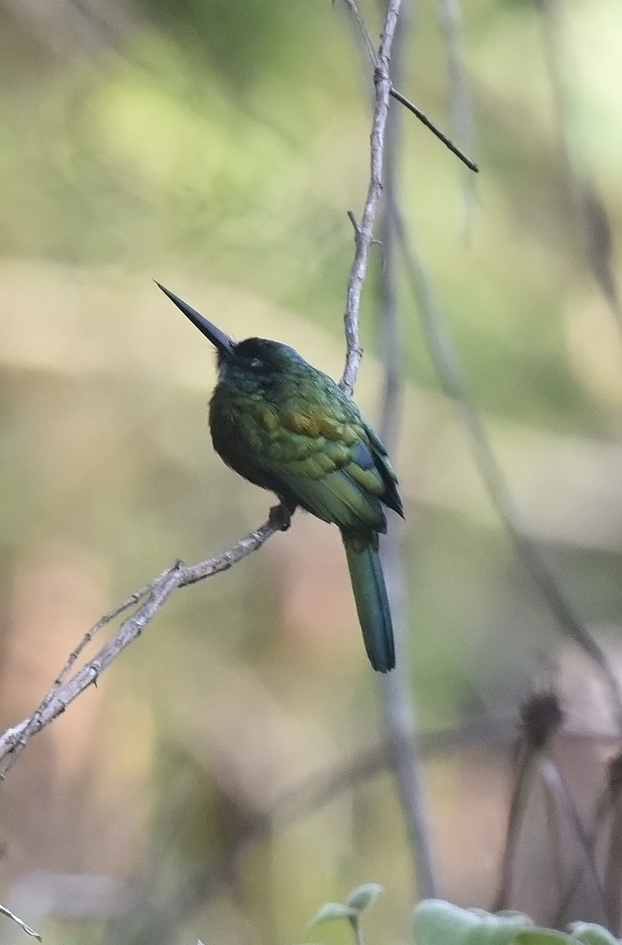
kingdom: Animalia
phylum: Chordata
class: Aves
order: Piciformes
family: Galbulidae
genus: Galbula
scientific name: Galbula leucogastra
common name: Bronzy jacamar
